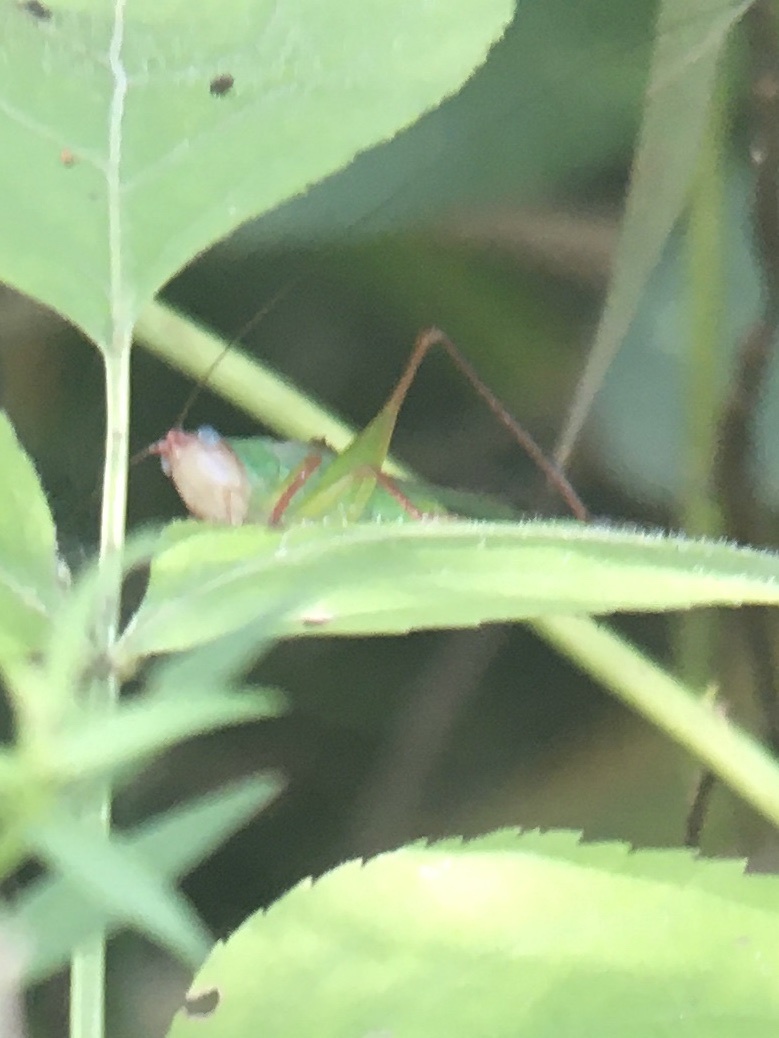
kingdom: Animalia
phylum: Arthropoda
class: Insecta
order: Orthoptera
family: Tettigoniidae
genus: Orchelimum
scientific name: Orchelimum pulchellum
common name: Handsome meadow katydid
